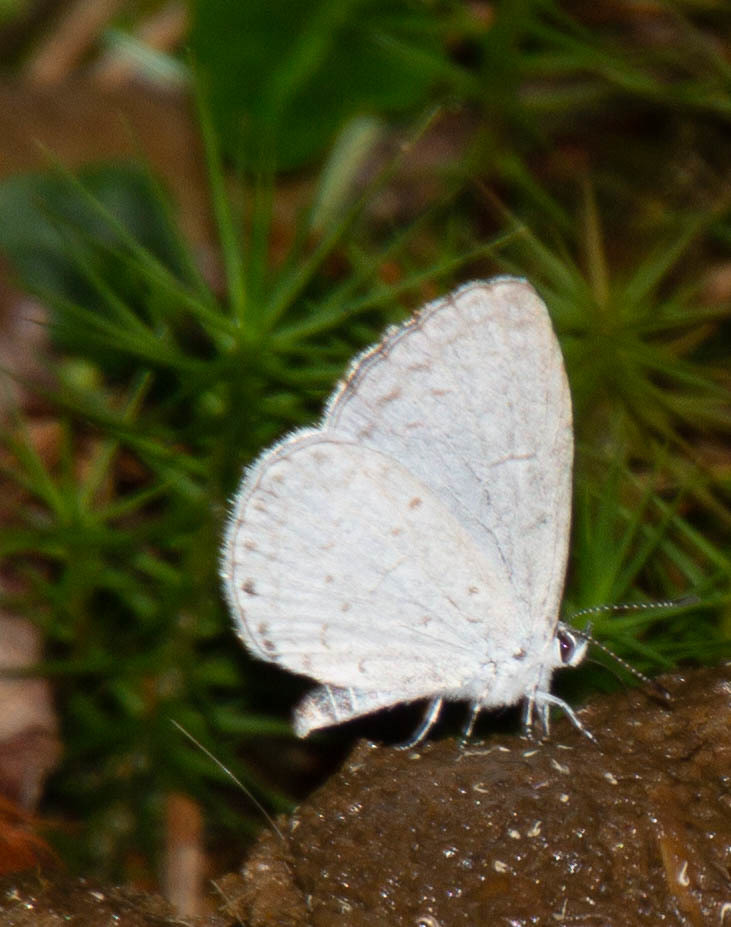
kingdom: Animalia
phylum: Arthropoda
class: Insecta
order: Lepidoptera
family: Lycaenidae
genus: Cyaniris
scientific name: Cyaniris neglecta
